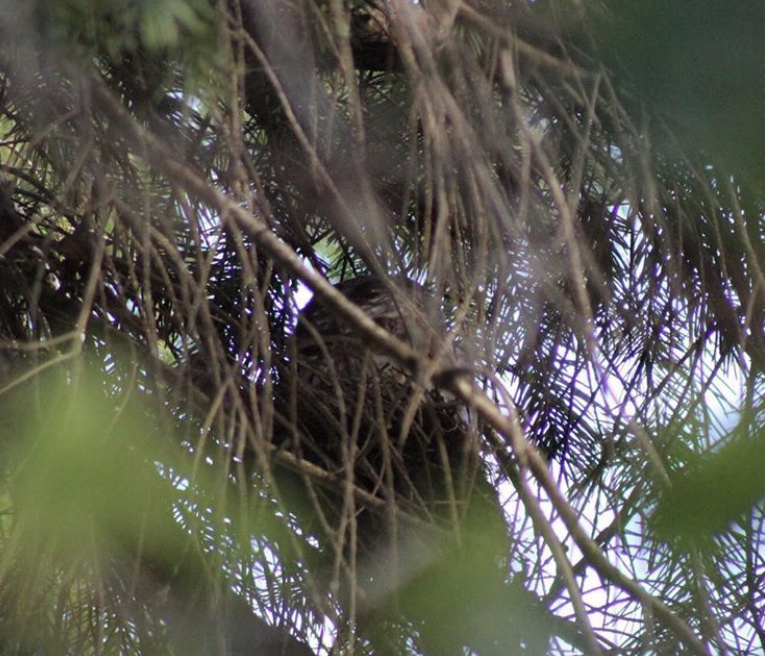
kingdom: Animalia
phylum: Chordata
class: Aves
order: Strigiformes
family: Strigidae
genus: Aegolius
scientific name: Aegolius acadicus
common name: Northern saw-whet owl
